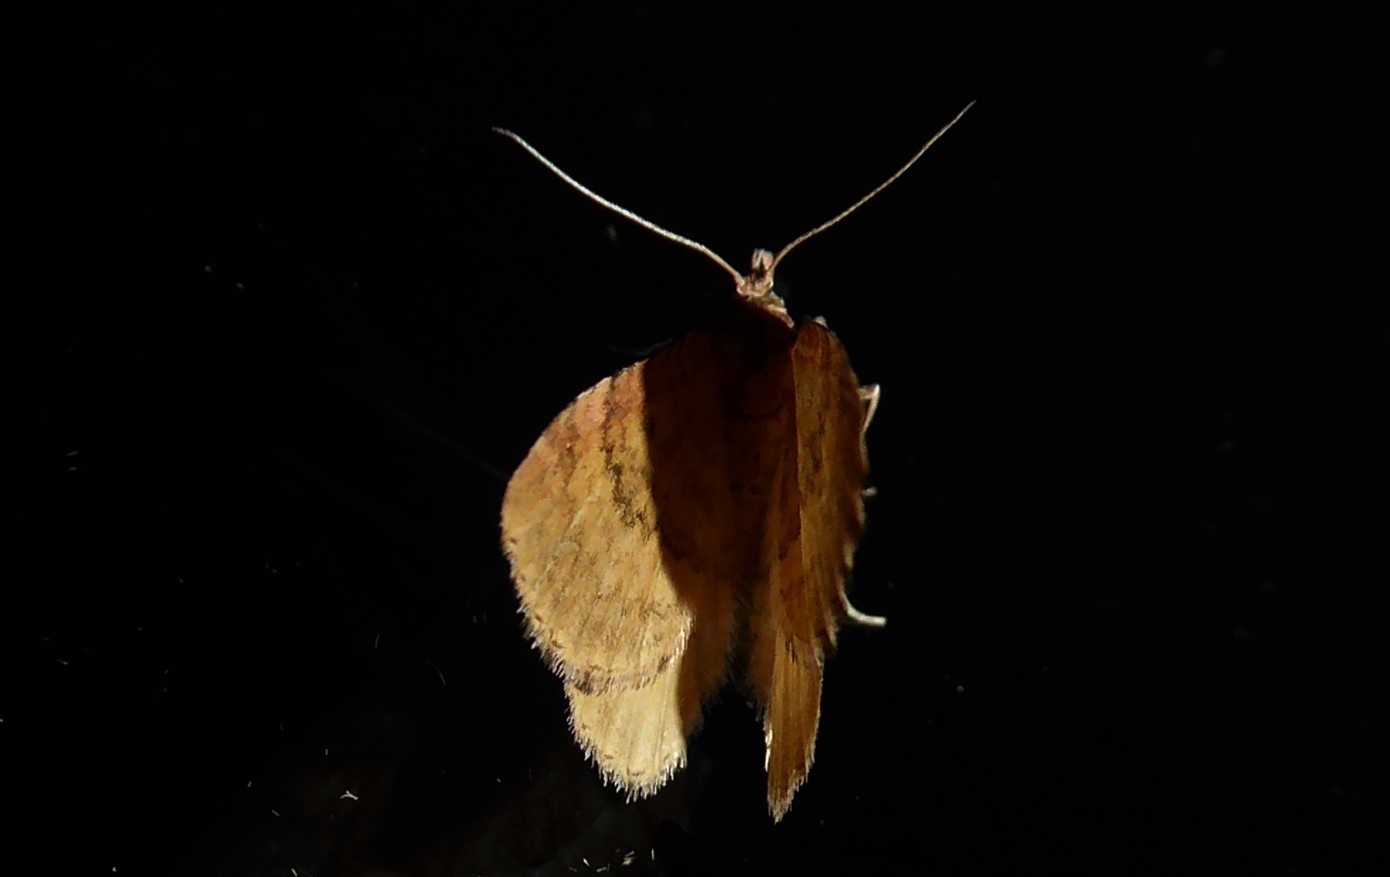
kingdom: Animalia
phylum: Arthropoda
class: Insecta
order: Lepidoptera
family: Geometridae
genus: Asaphodes
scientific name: Asaphodes aegrota
